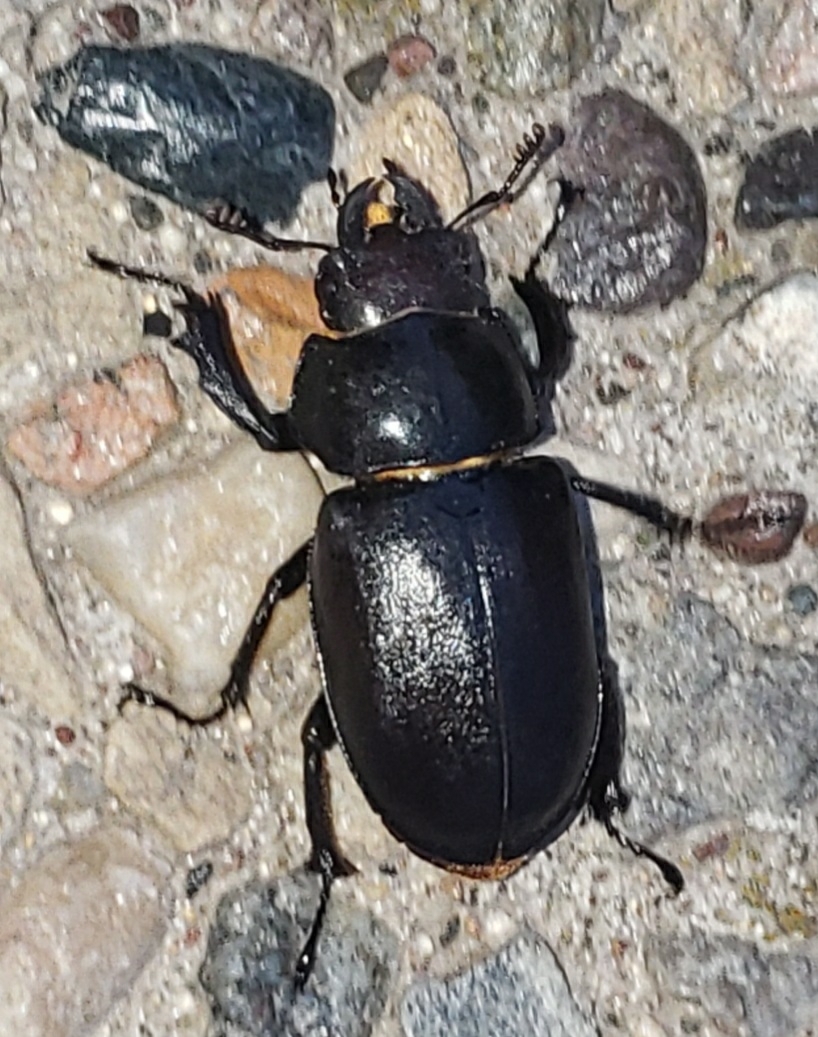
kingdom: Animalia
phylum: Arthropoda
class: Insecta
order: Coleoptera
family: Lucanidae
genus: Lucanus
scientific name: Lucanus placidus
